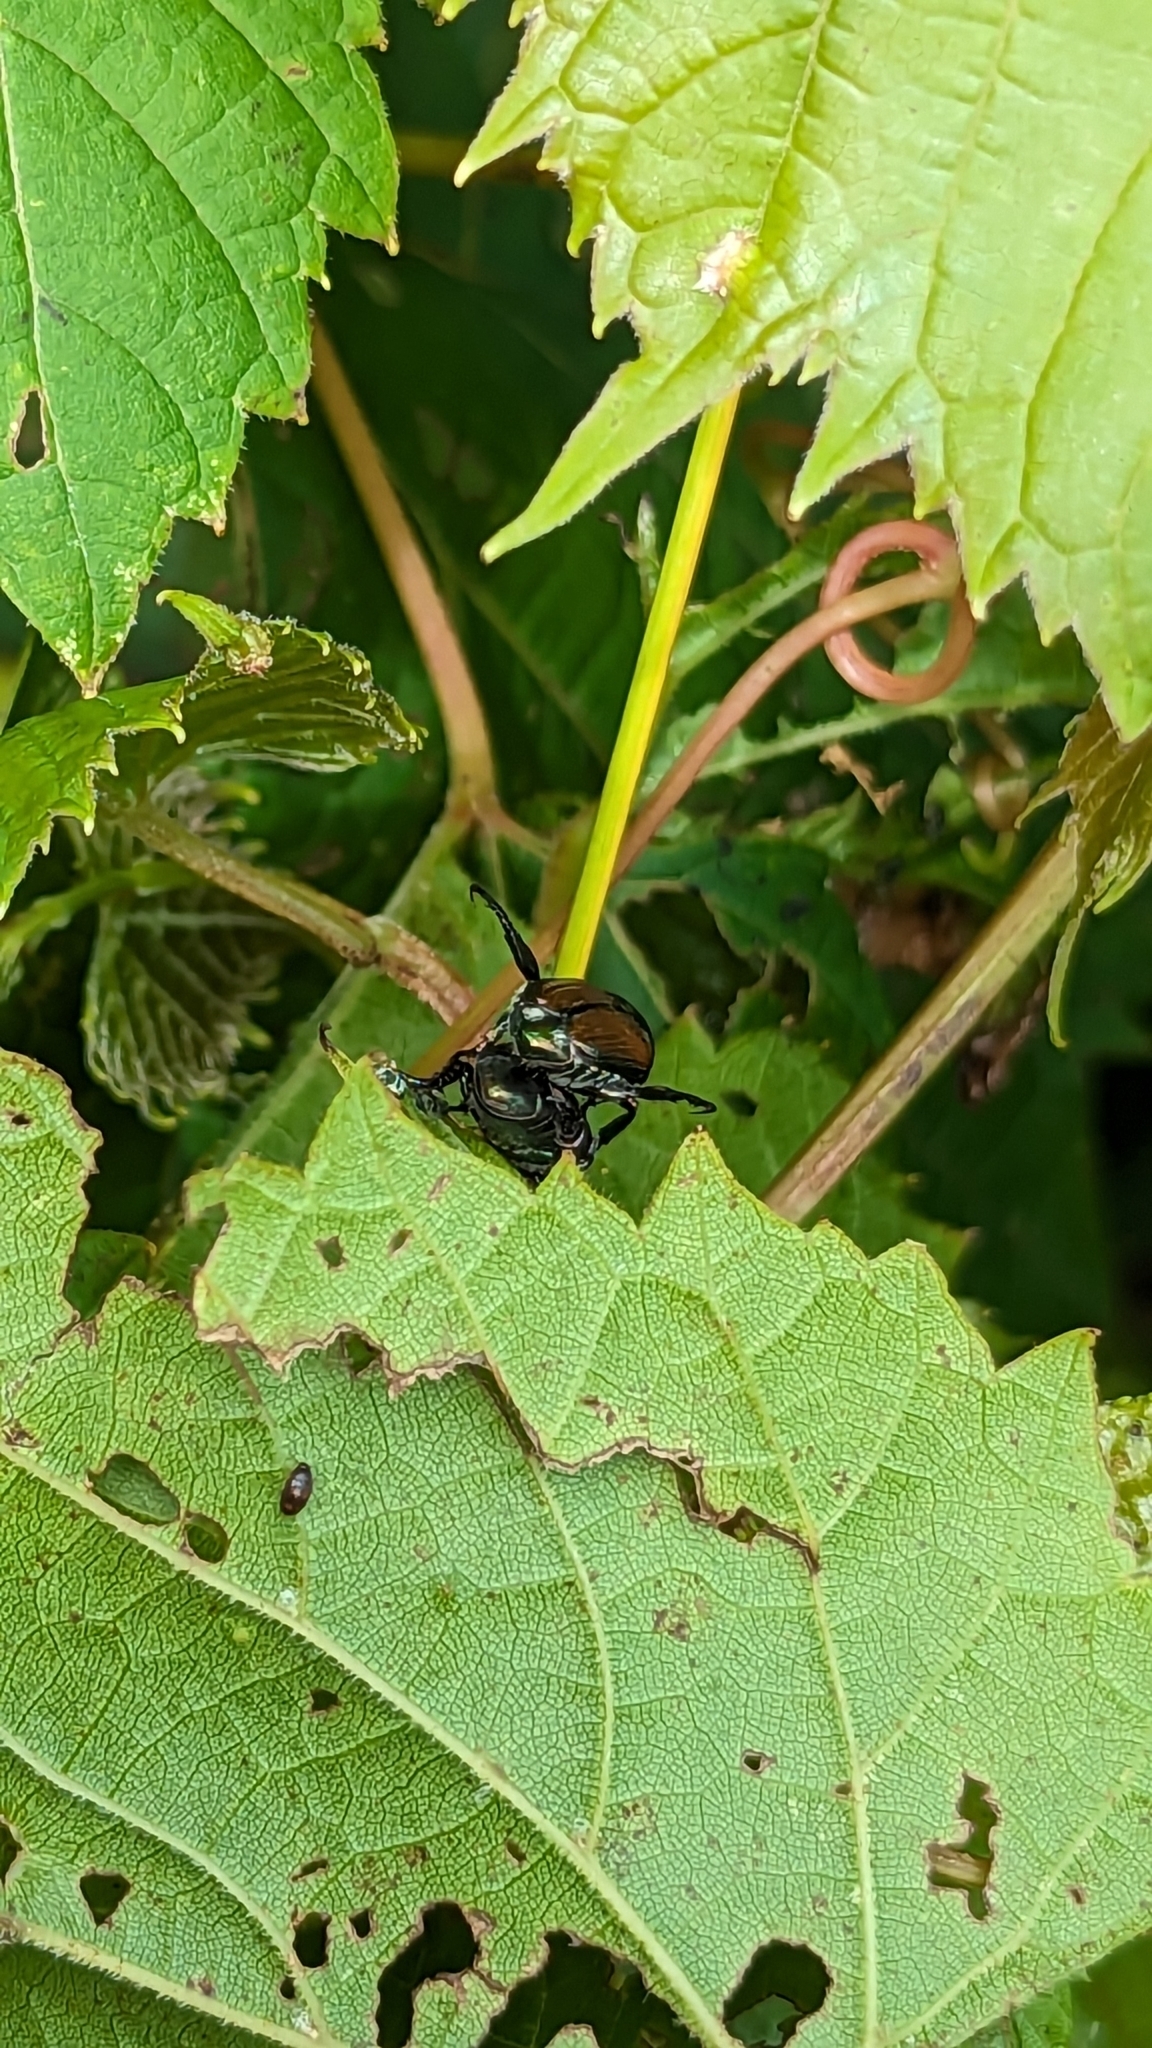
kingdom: Animalia
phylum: Arthropoda
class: Insecta
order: Coleoptera
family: Scarabaeidae
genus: Popillia
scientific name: Popillia japonica
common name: Japanese beetle
